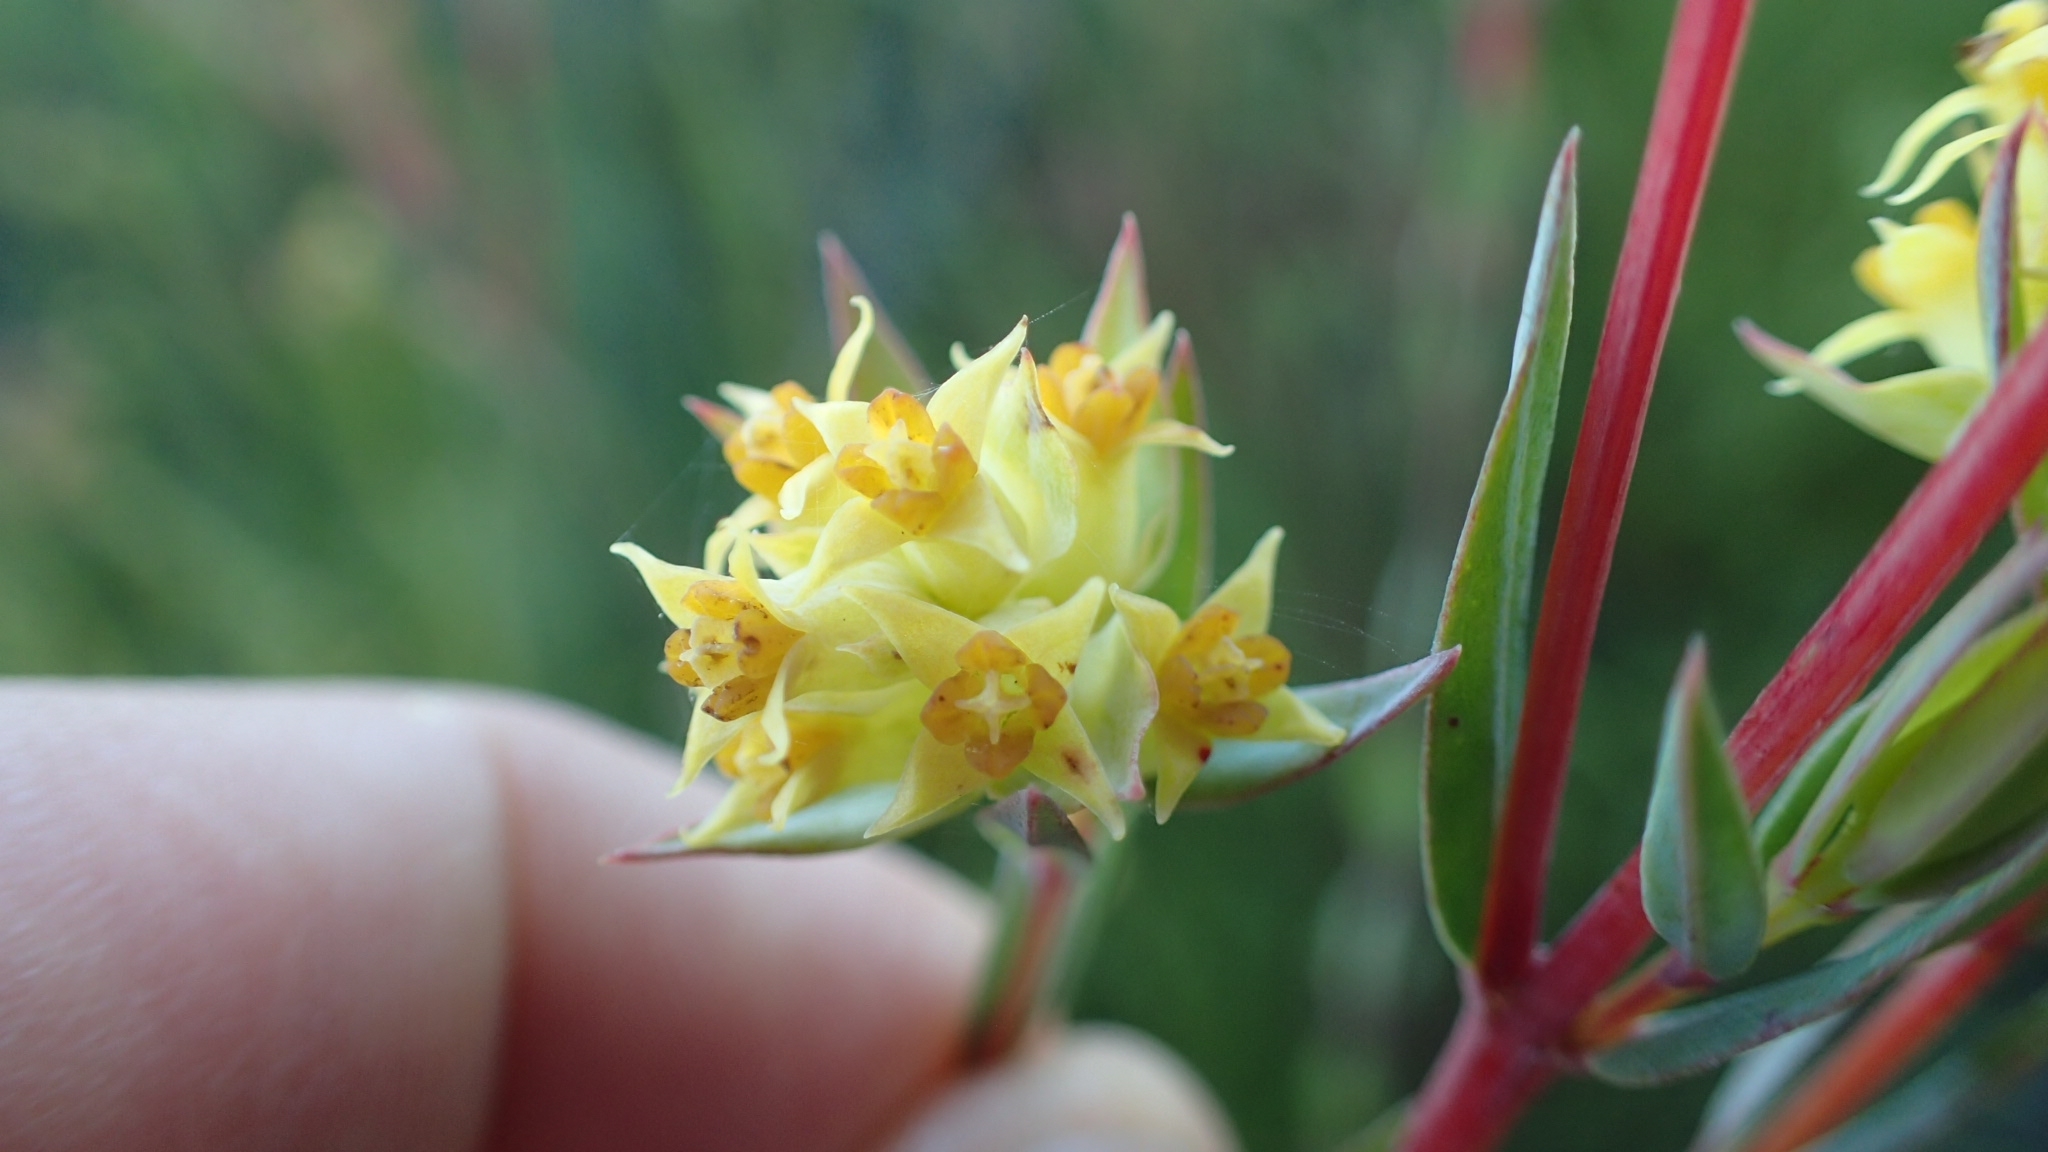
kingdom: Plantae
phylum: Tracheophyta
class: Magnoliopsida
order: Myrtales
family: Penaeaceae
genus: Penaea
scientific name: Penaea acutifolia
